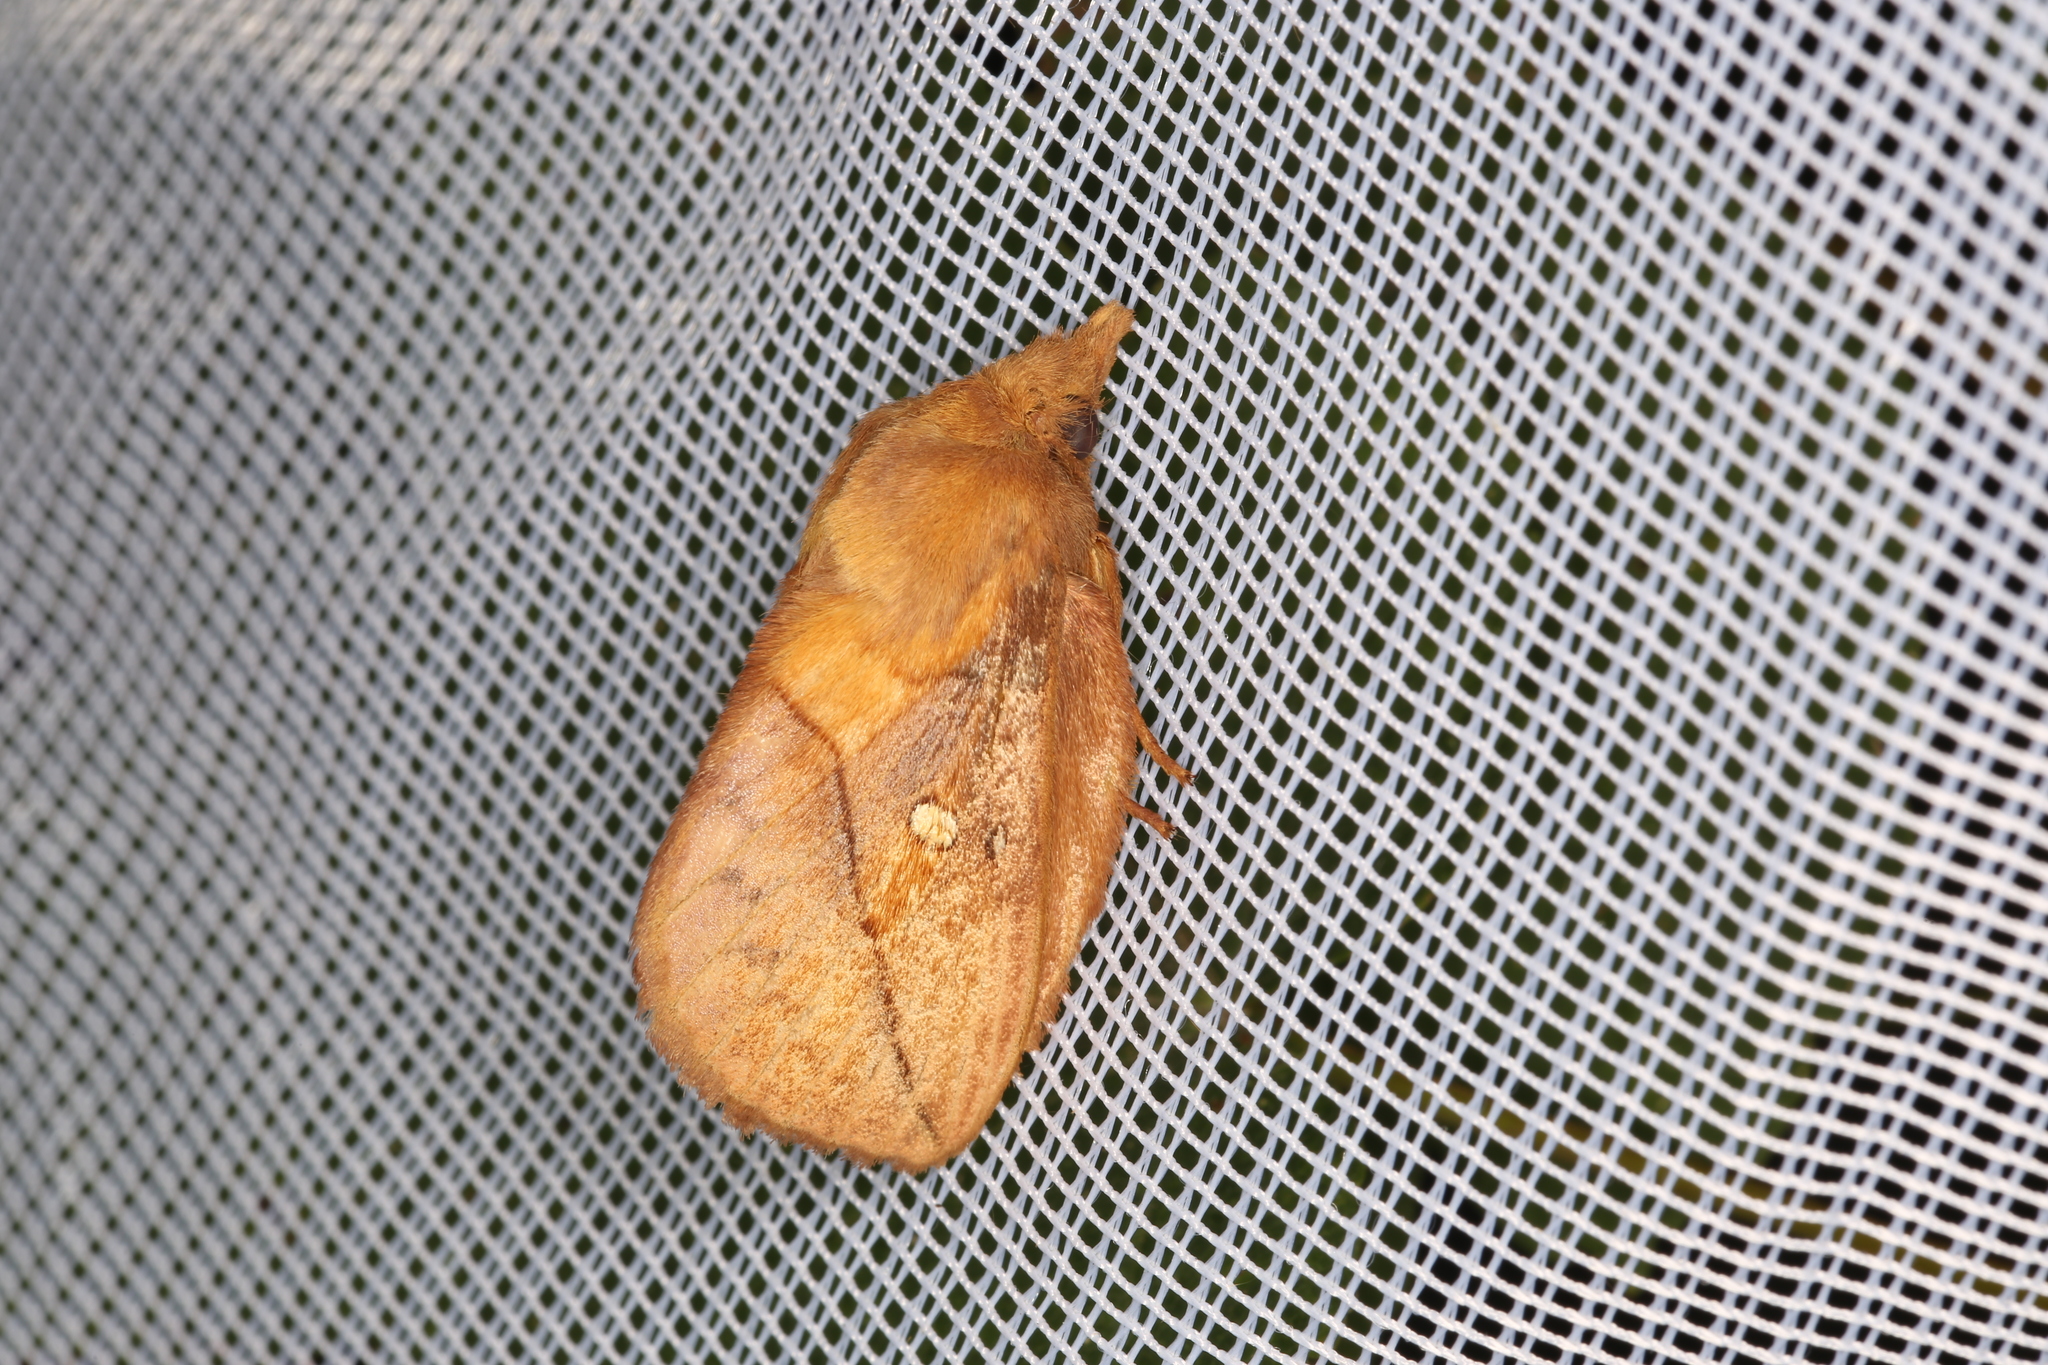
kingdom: Animalia
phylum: Arthropoda
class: Insecta
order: Lepidoptera
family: Lasiocampidae
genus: Euthrix
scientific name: Euthrix potatoria
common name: Drinker
